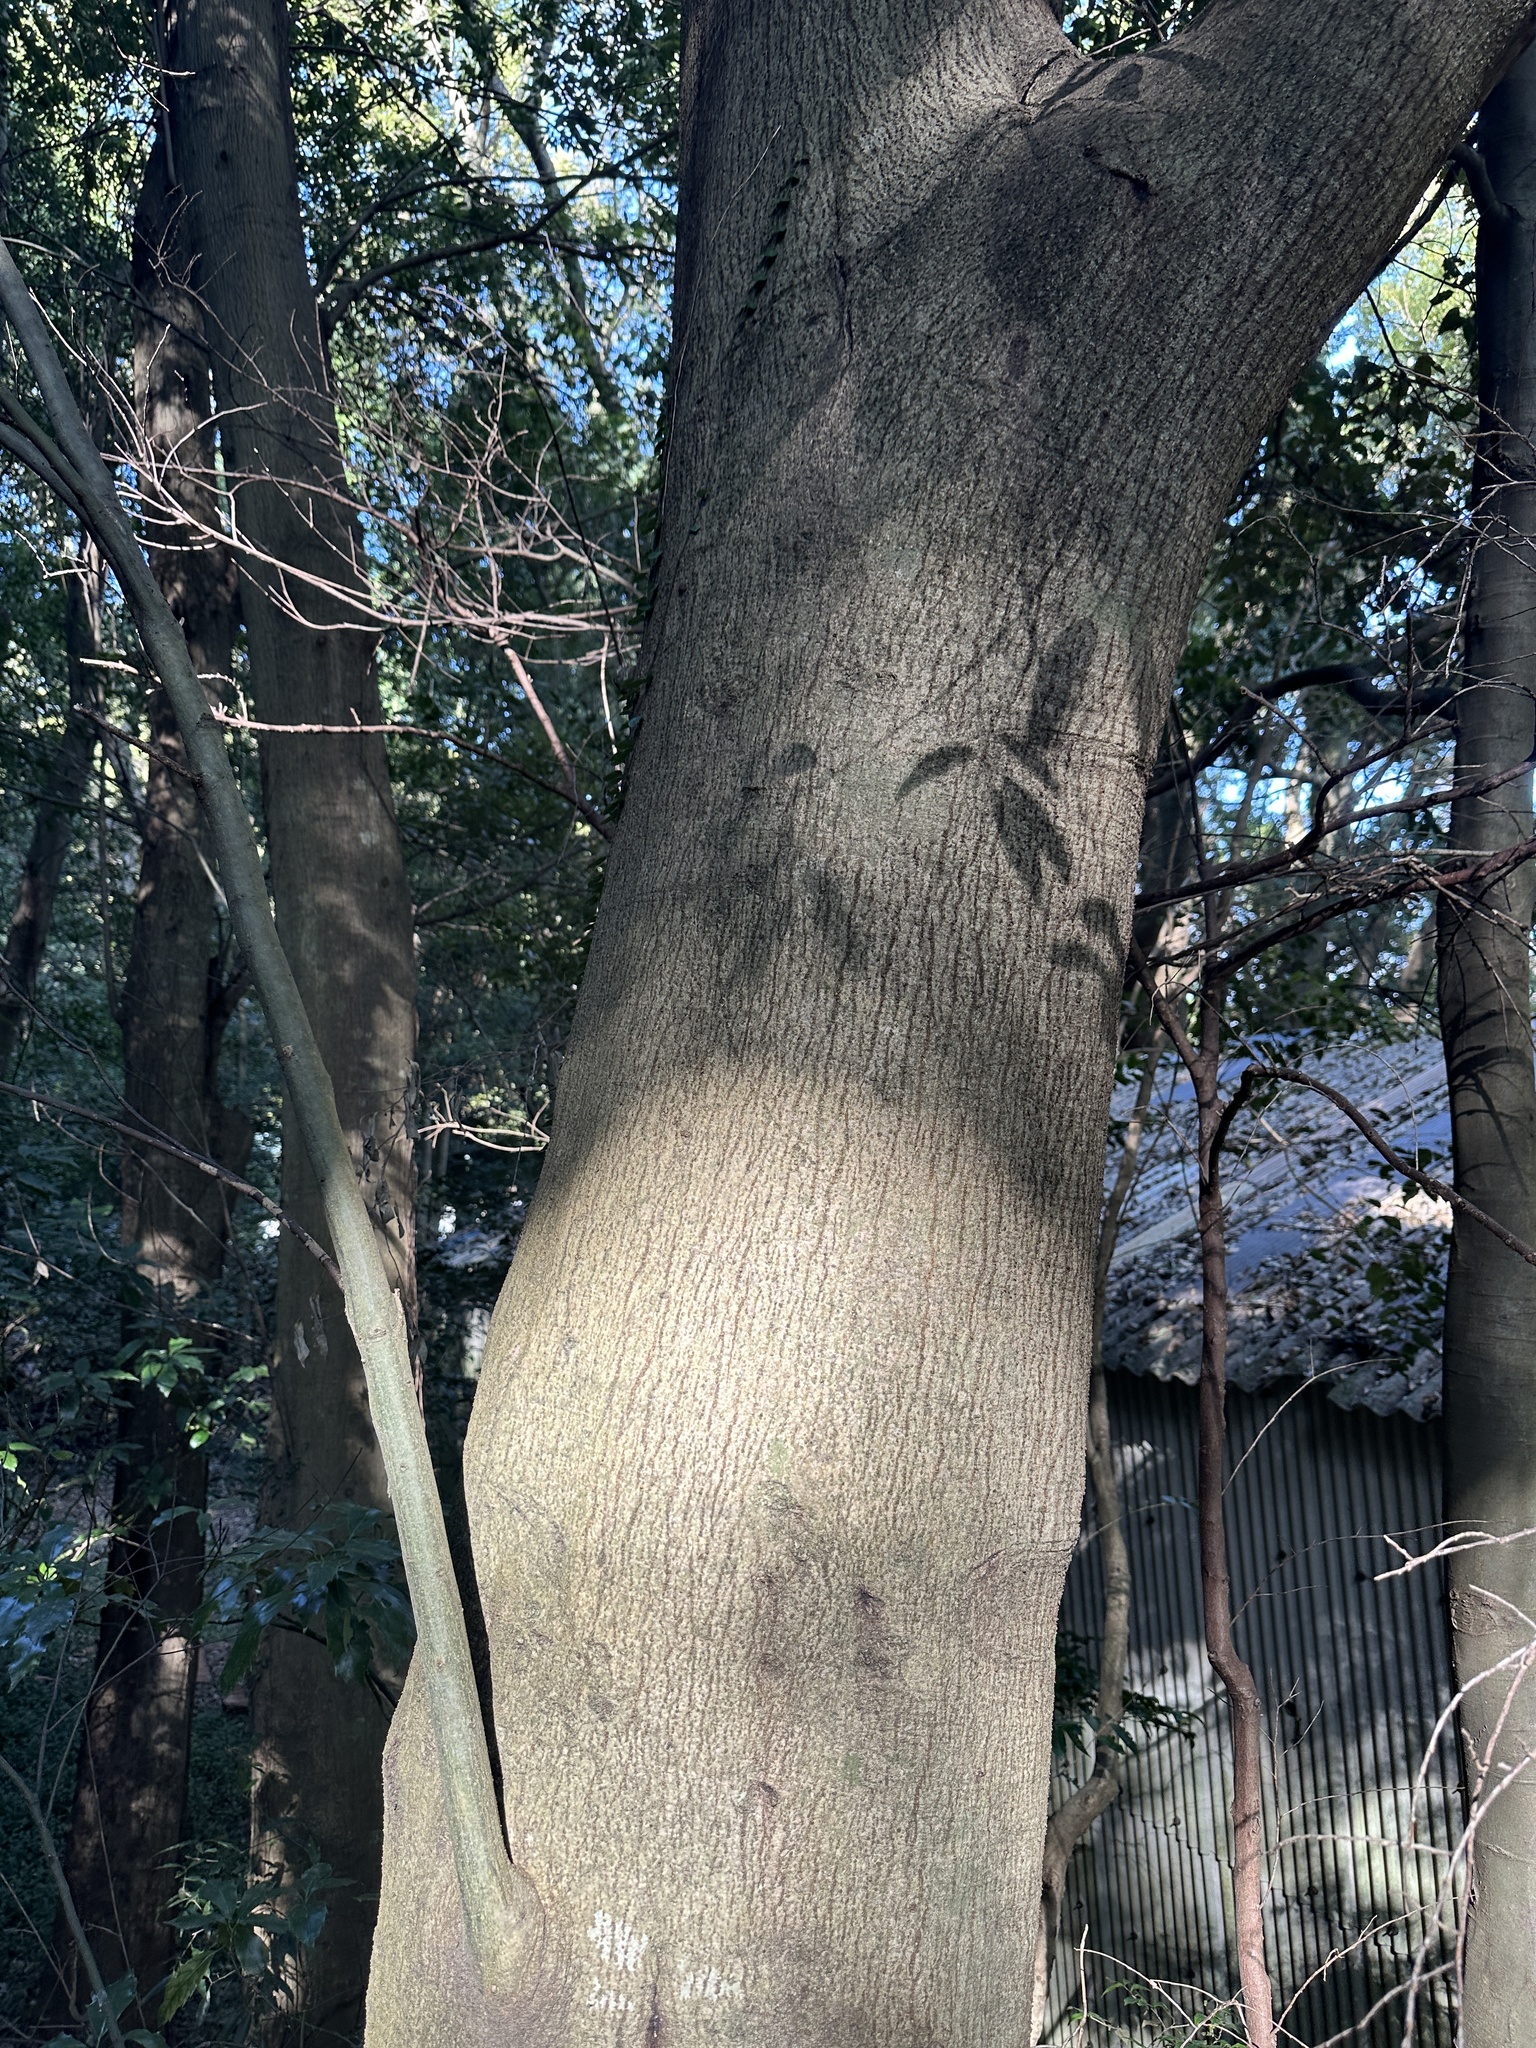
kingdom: Plantae
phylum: Tracheophyta
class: Magnoliopsida
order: Fagales
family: Fagaceae
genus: Quercus
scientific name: Quercus myrsinifolia
